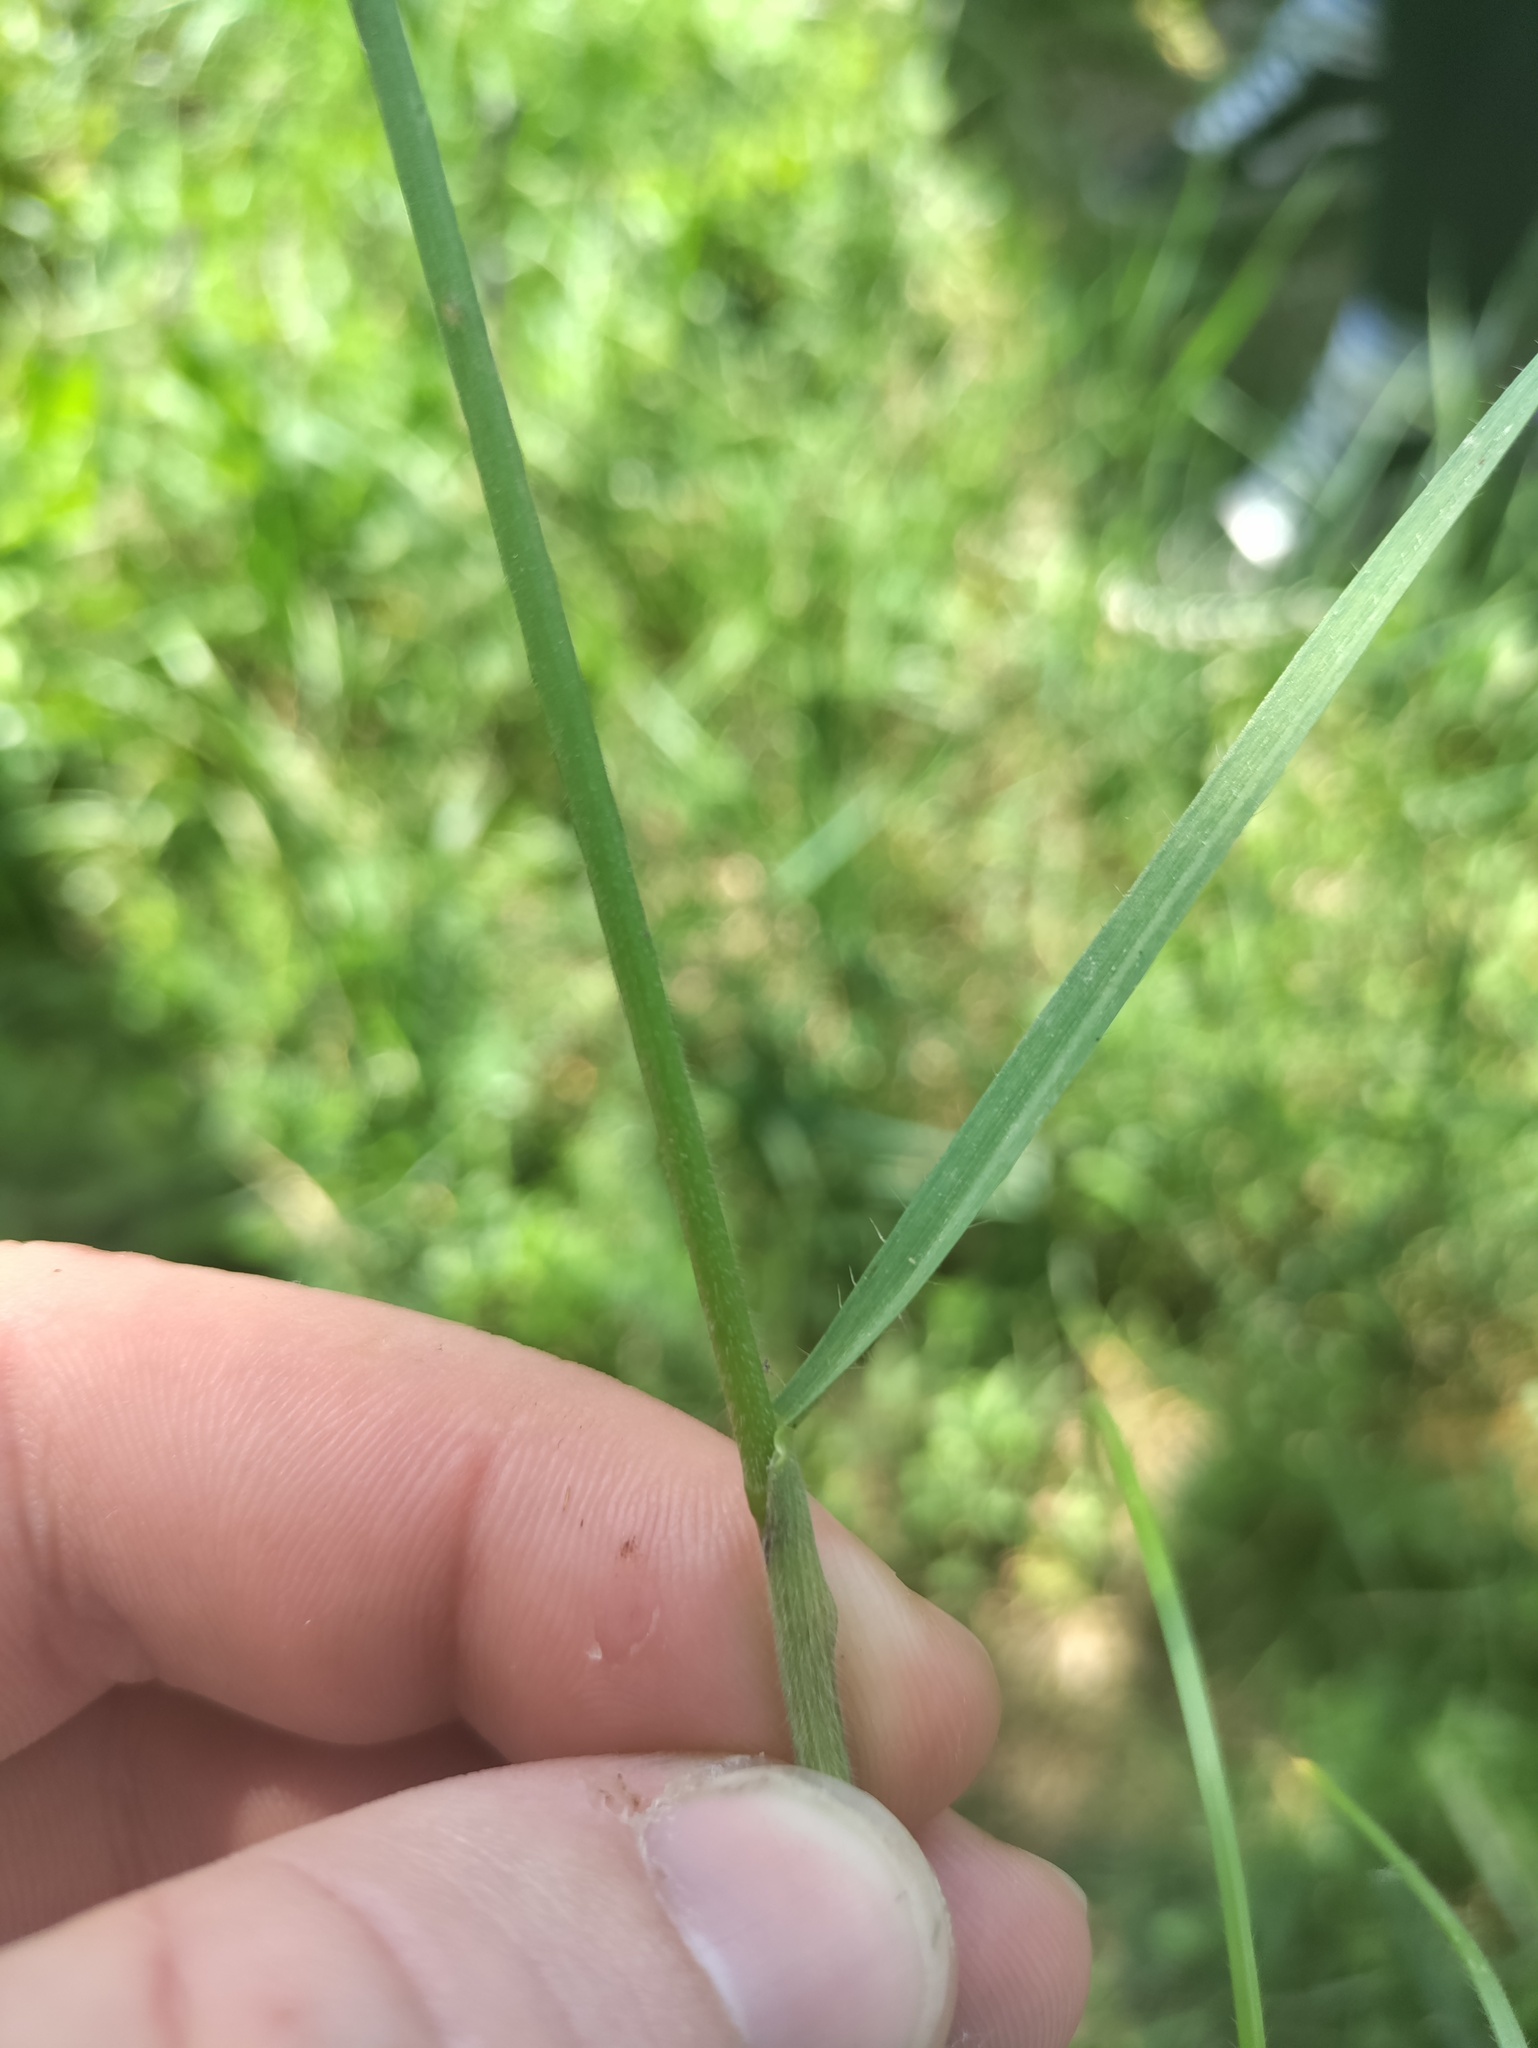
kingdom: Plantae
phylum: Tracheophyta
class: Liliopsida
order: Poales
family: Poaceae
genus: Bromus
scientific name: Bromus erectus
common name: Erect brome
